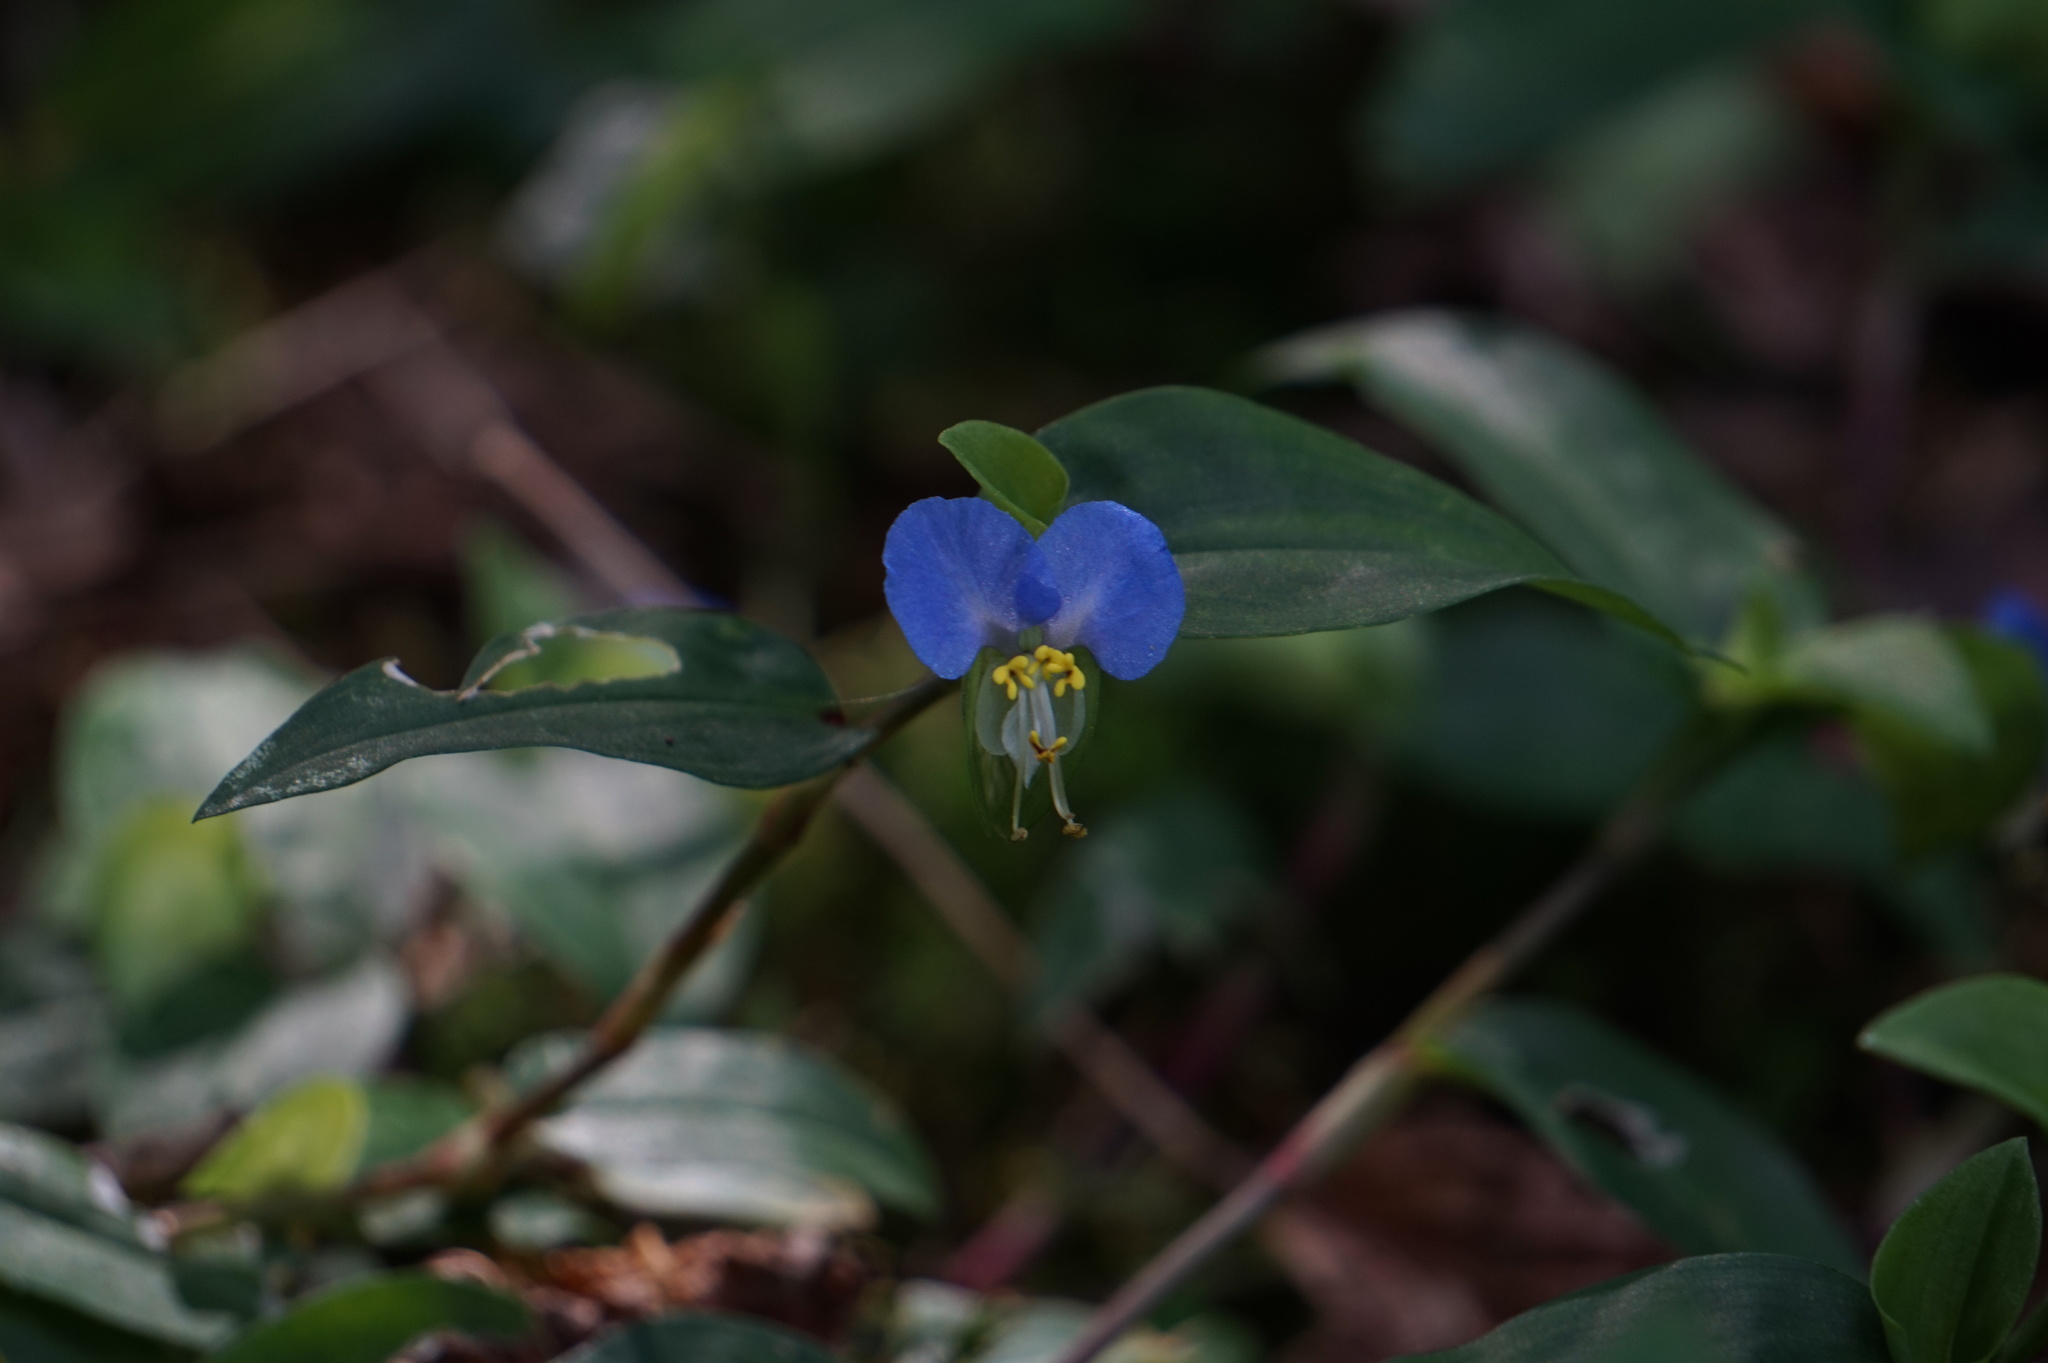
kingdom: Plantae
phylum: Tracheophyta
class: Liliopsida
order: Commelinales
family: Commelinaceae
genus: Commelina
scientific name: Commelina communis
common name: Asiatic dayflower
